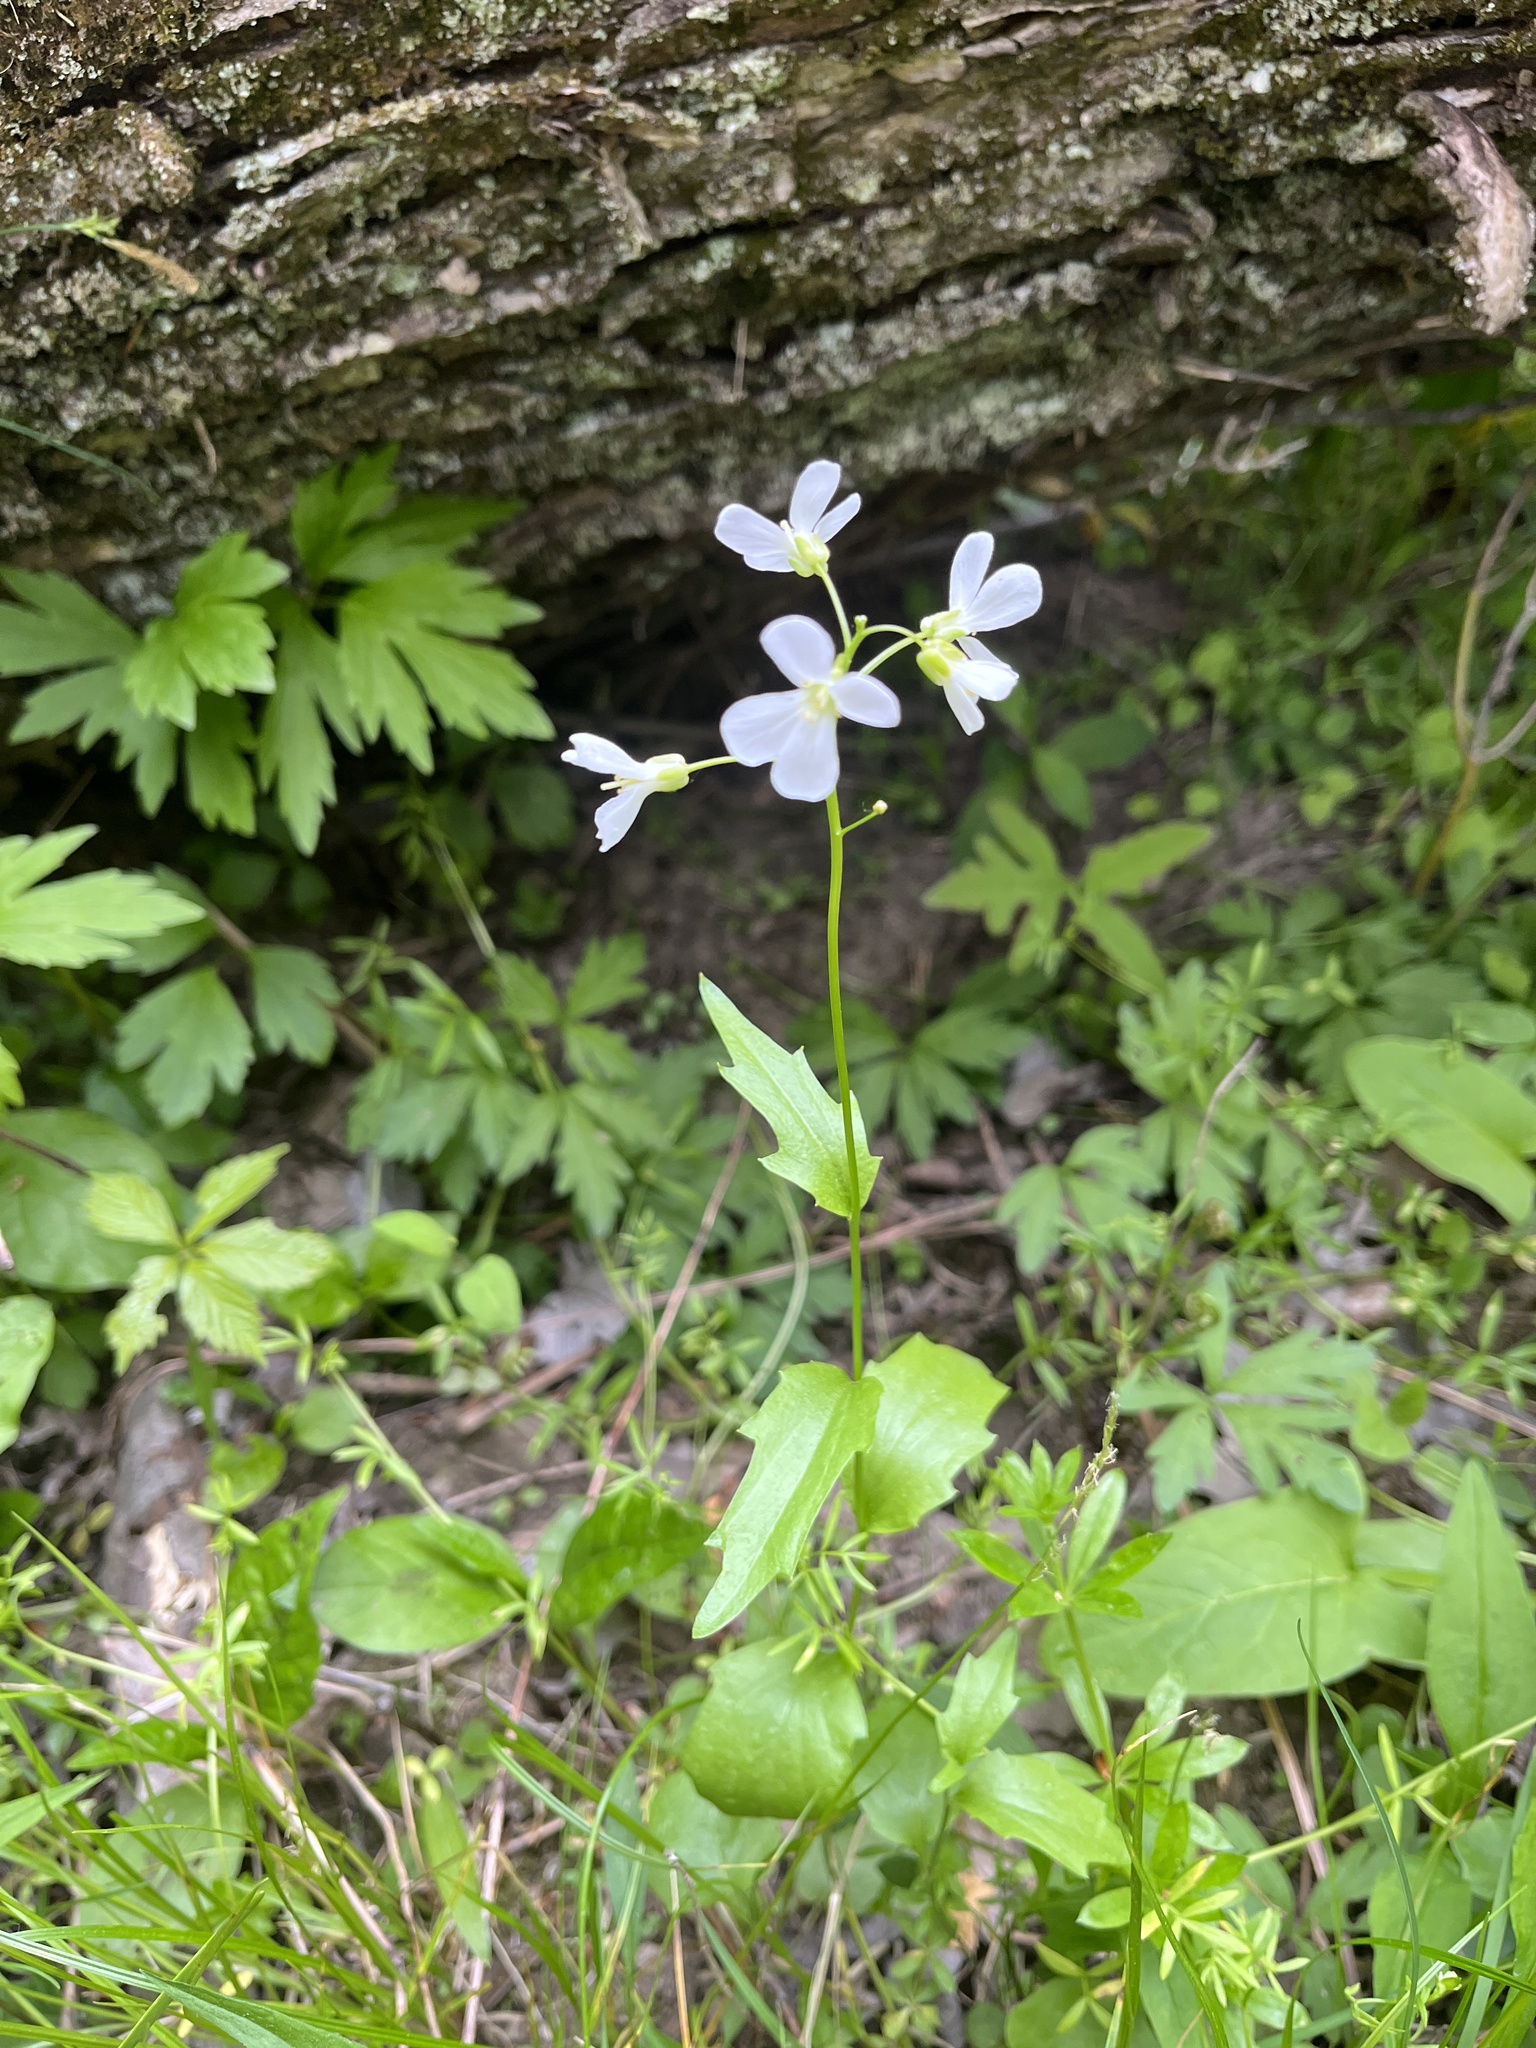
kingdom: Plantae
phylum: Tracheophyta
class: Magnoliopsida
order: Brassicales
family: Brassicaceae
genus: Cardamine
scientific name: Cardamine bulbosa
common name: Spring cress
